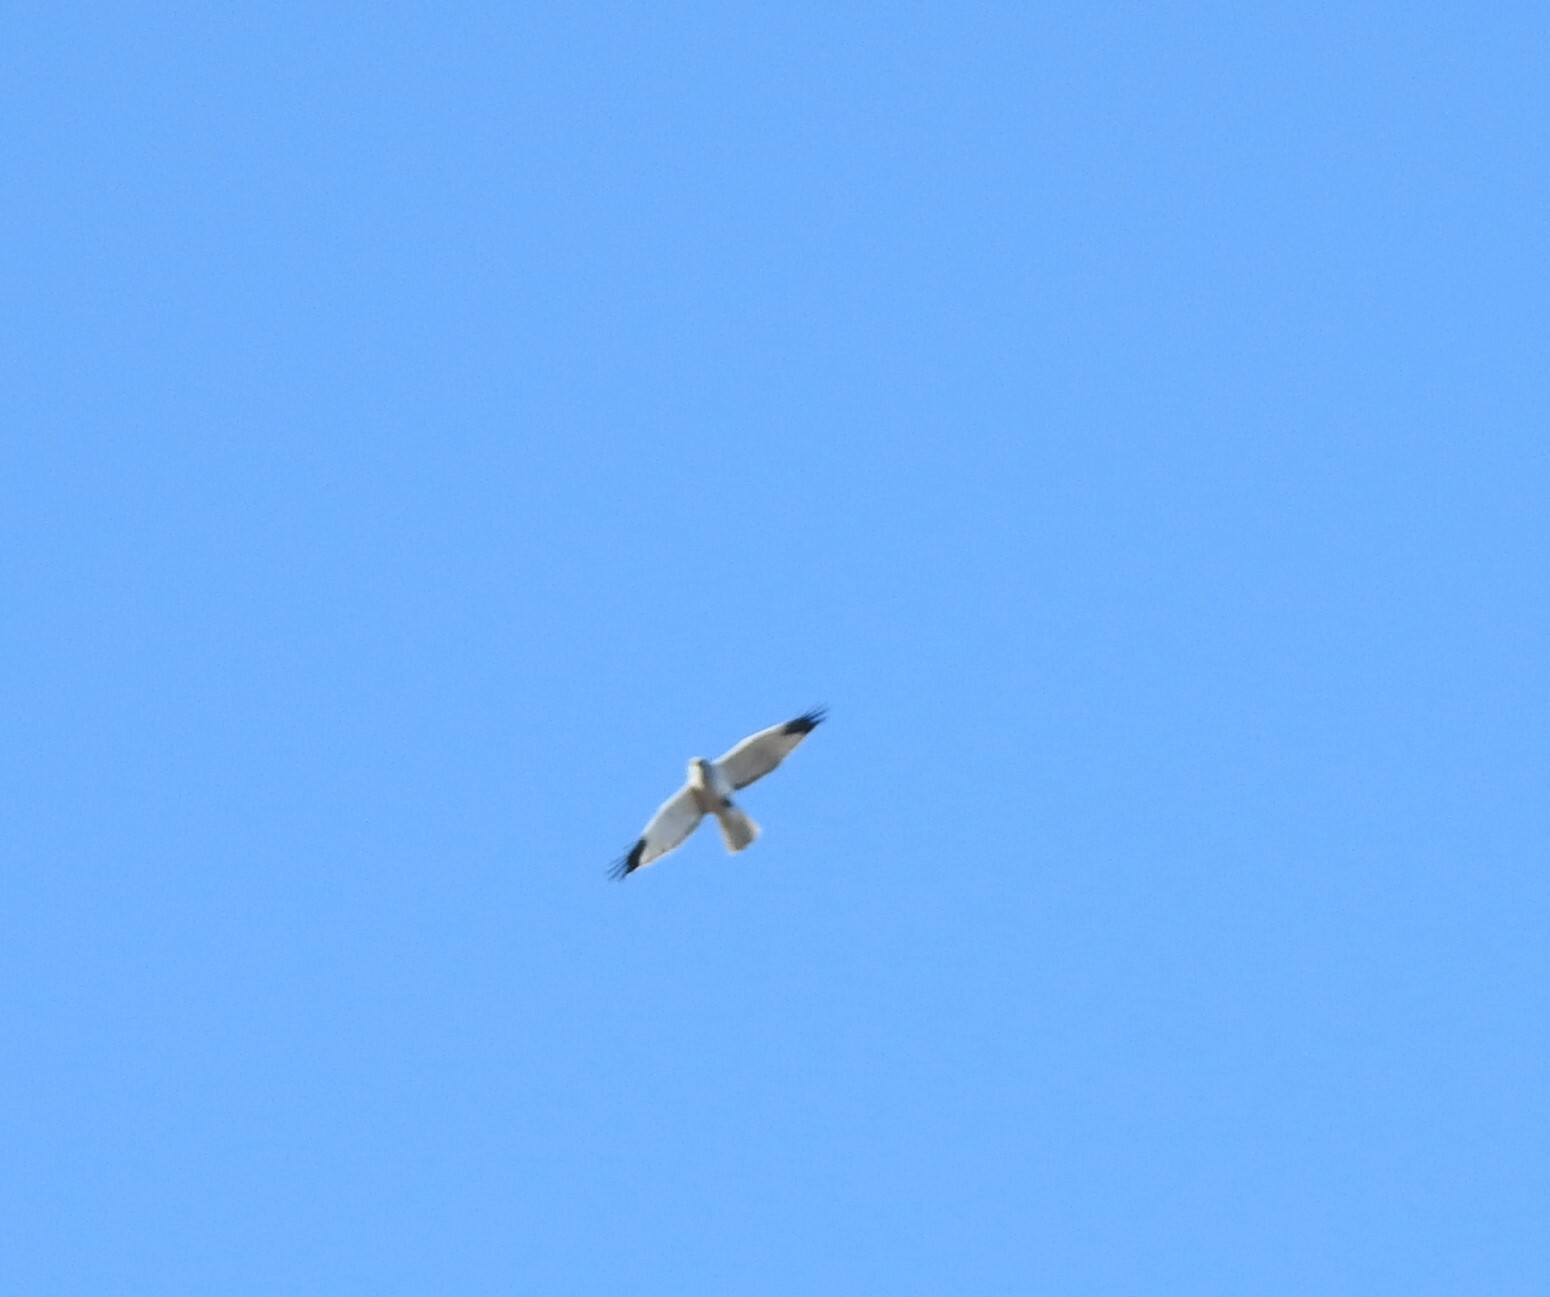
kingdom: Animalia
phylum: Chordata
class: Aves
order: Accipitriformes
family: Accipitridae
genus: Circus
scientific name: Circus cyaneus
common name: Hen harrier
